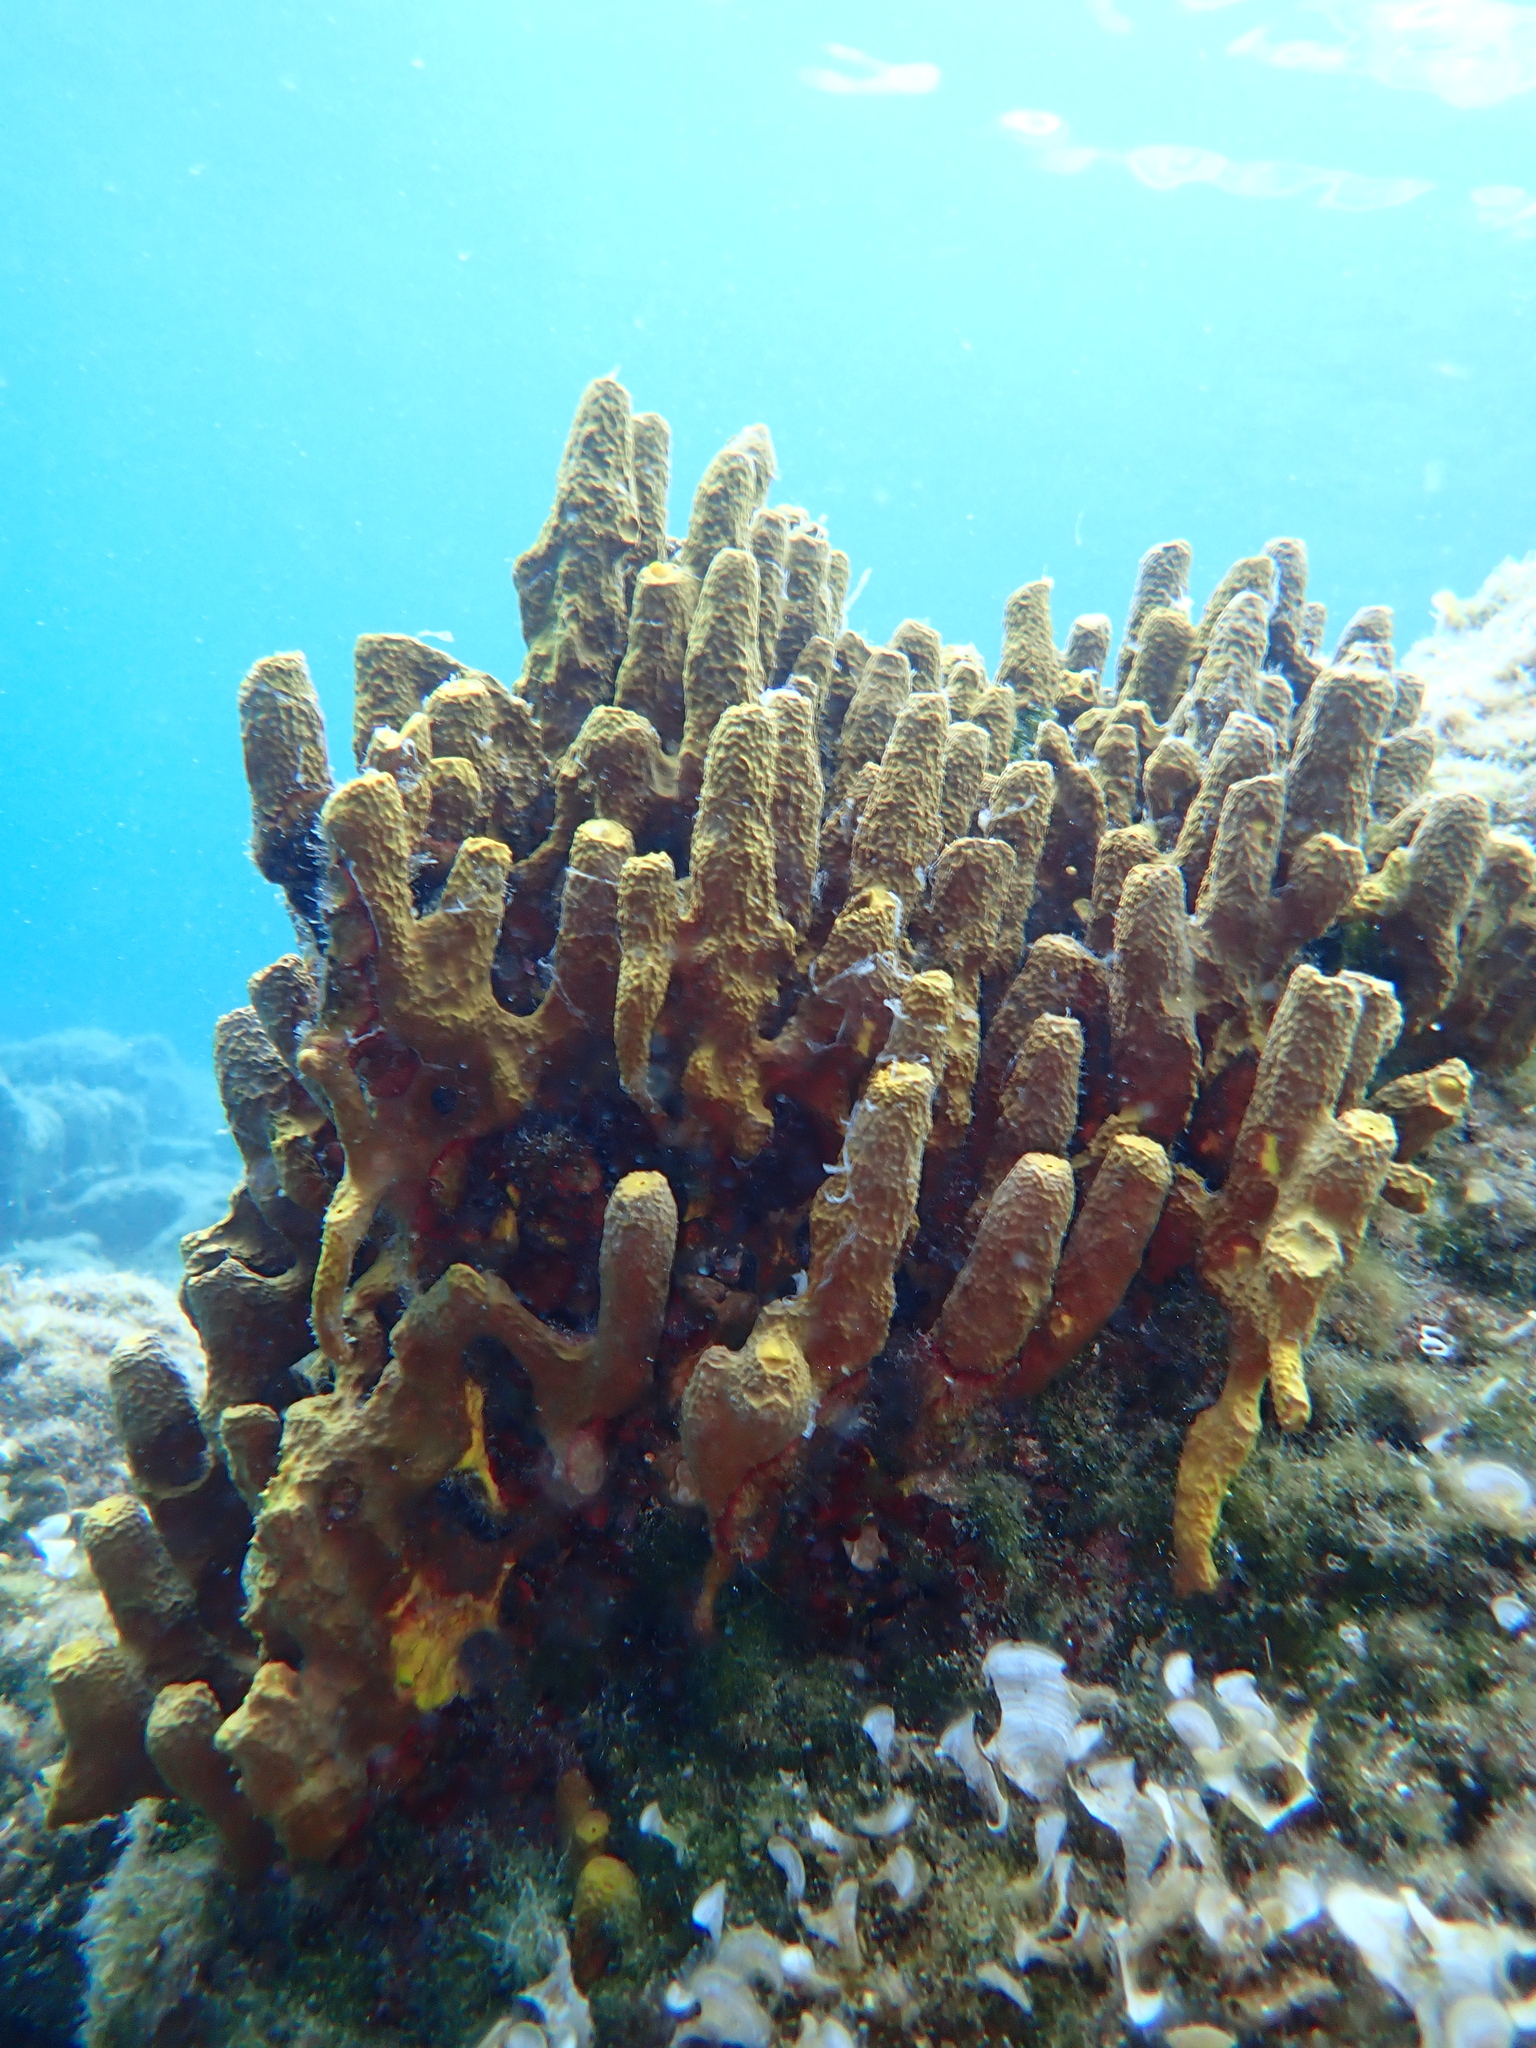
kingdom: Animalia
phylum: Porifera
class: Demospongiae
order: Verongiida
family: Aplysinidae
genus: Aplysina
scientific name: Aplysina aerophoba
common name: Aureate sponge
